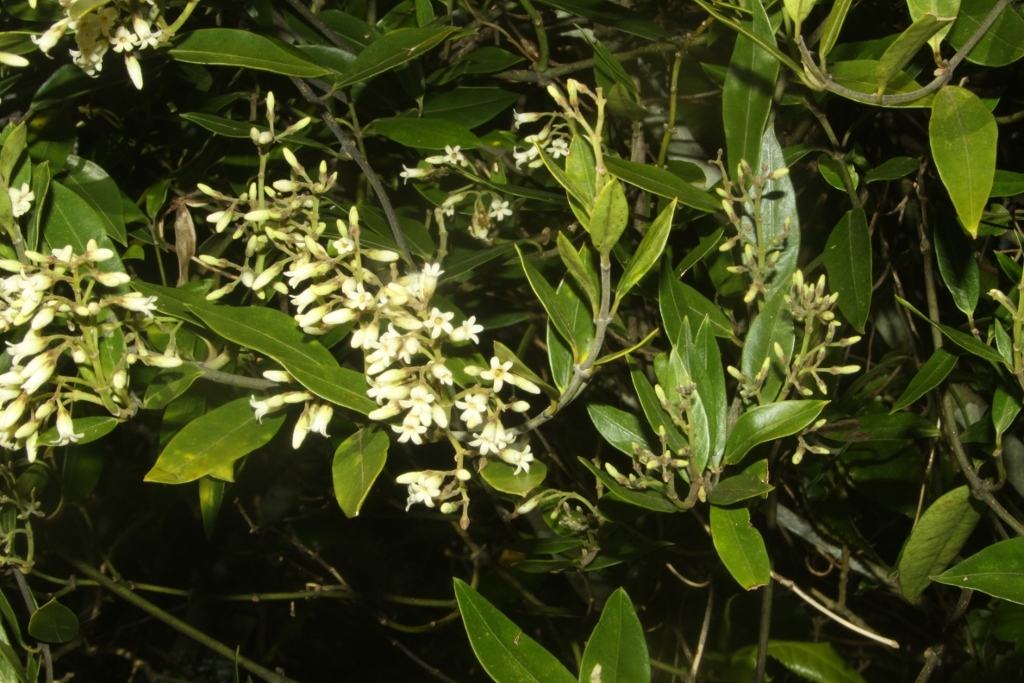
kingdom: Plantae
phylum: Tracheophyta
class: Magnoliopsida
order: Gentianales
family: Apocynaceae
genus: Parsonsia
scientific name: Parsonsia heterophylla
